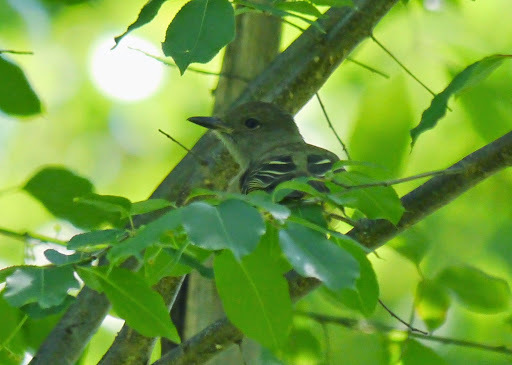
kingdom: Animalia
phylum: Chordata
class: Aves
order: Passeriformes
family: Tyrannidae
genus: Myiarchus
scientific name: Myiarchus crinitus
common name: Great crested flycatcher
